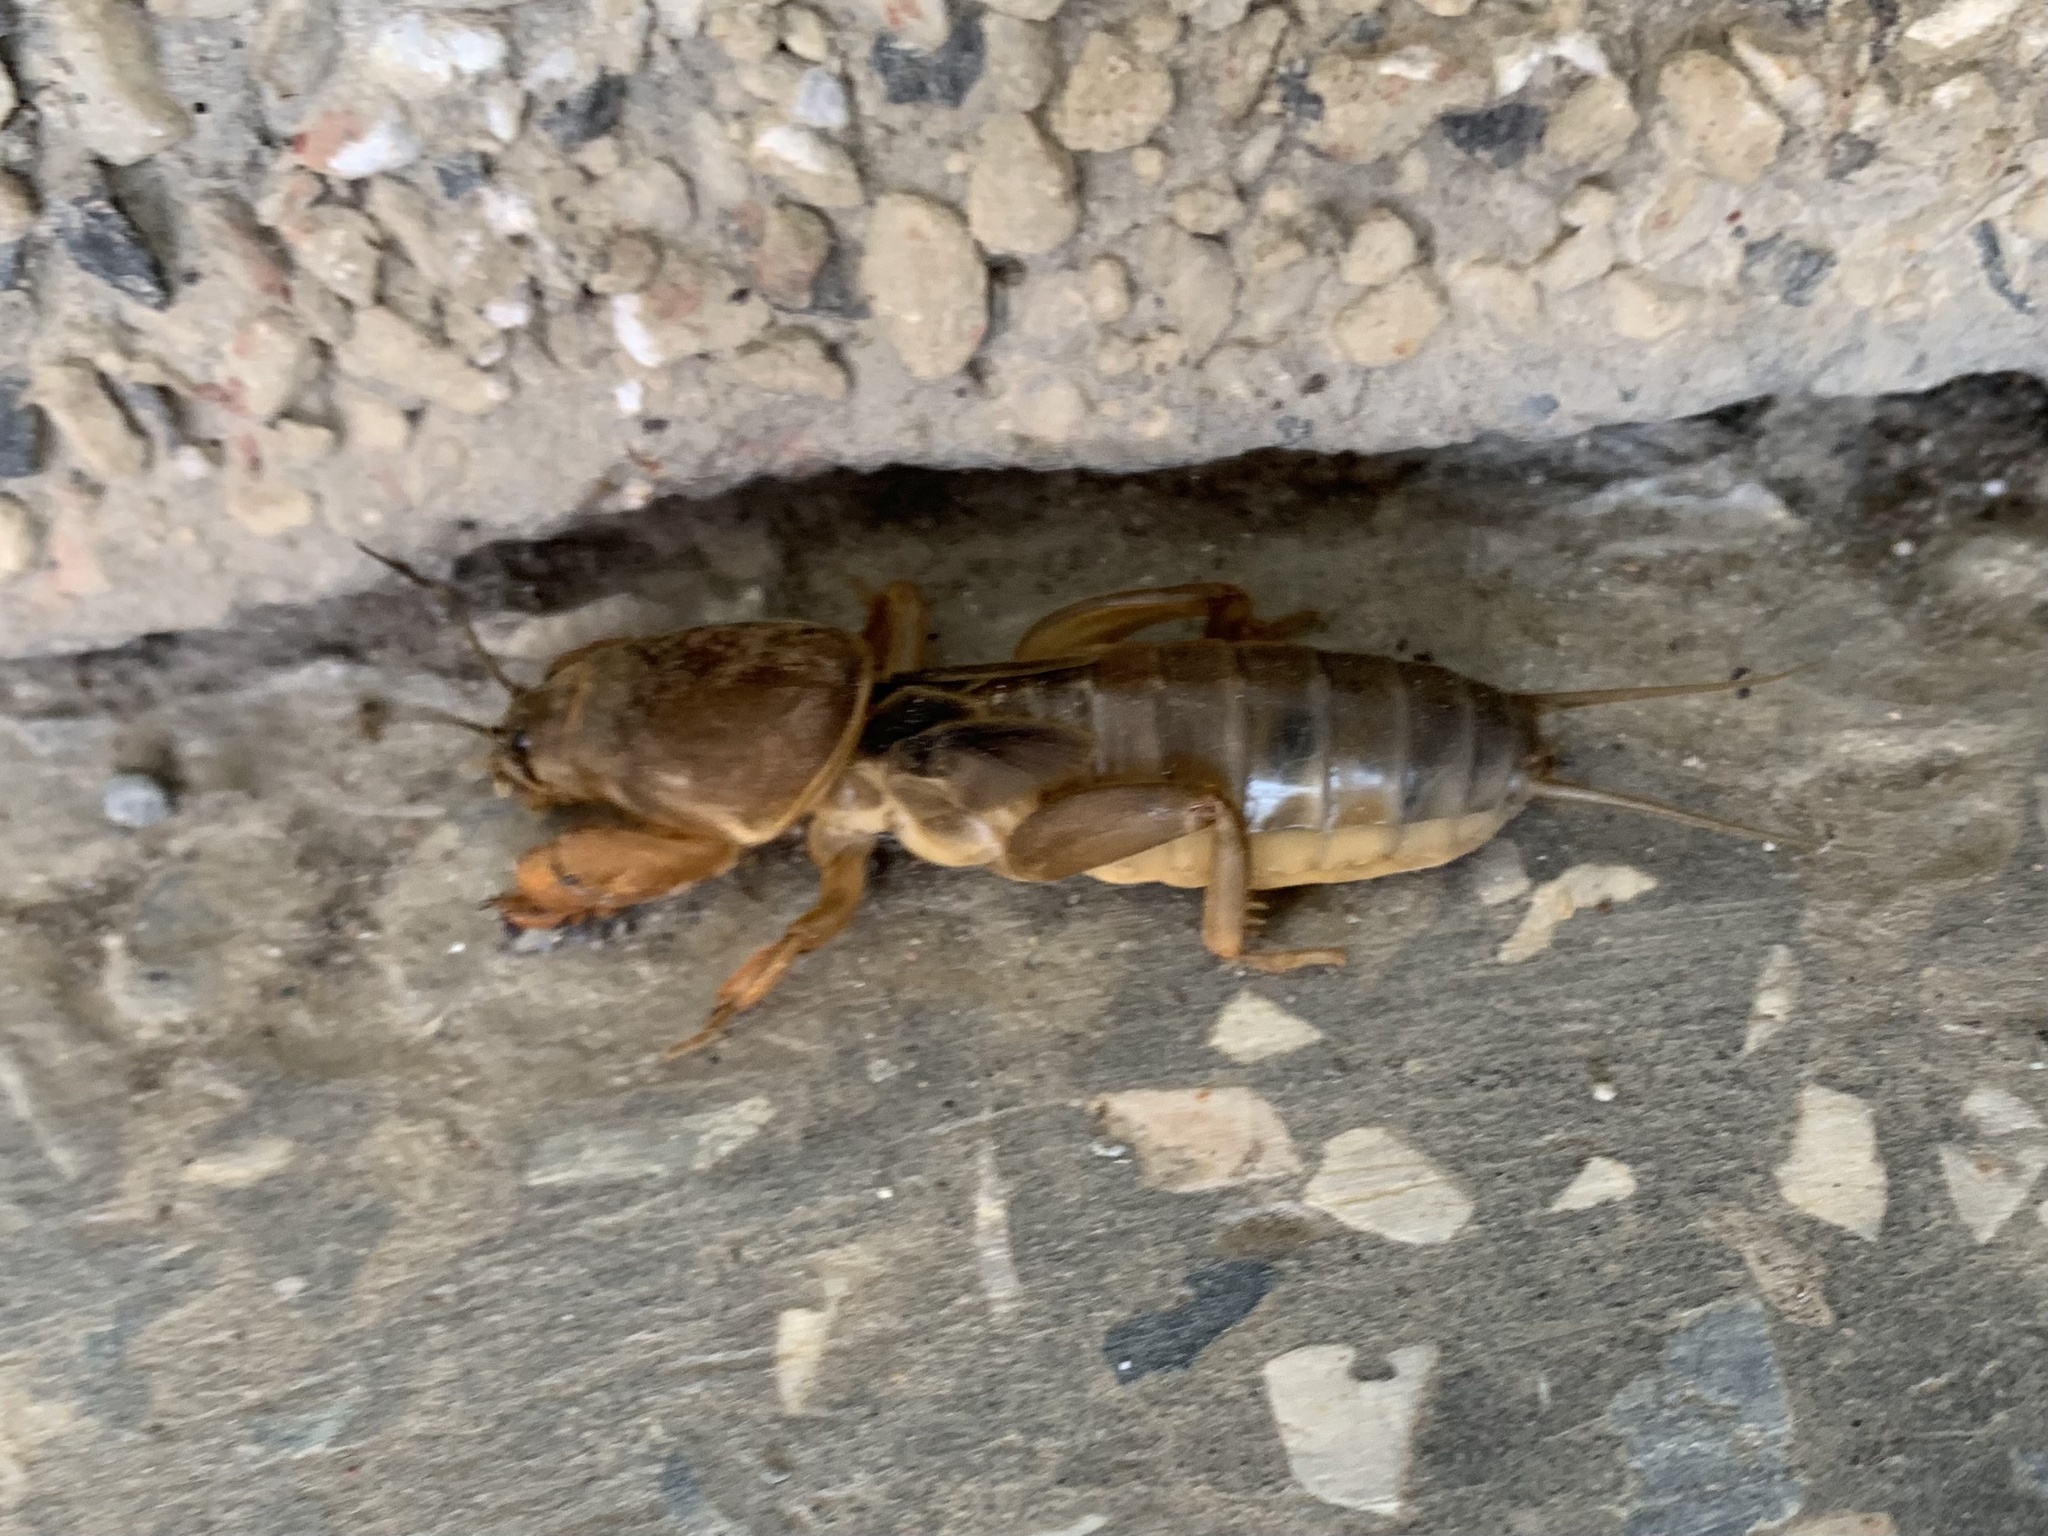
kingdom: Animalia
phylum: Arthropoda
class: Insecta
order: Orthoptera
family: Gryllotalpidae
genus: Gryllotalpa
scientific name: Gryllotalpa stepposa
